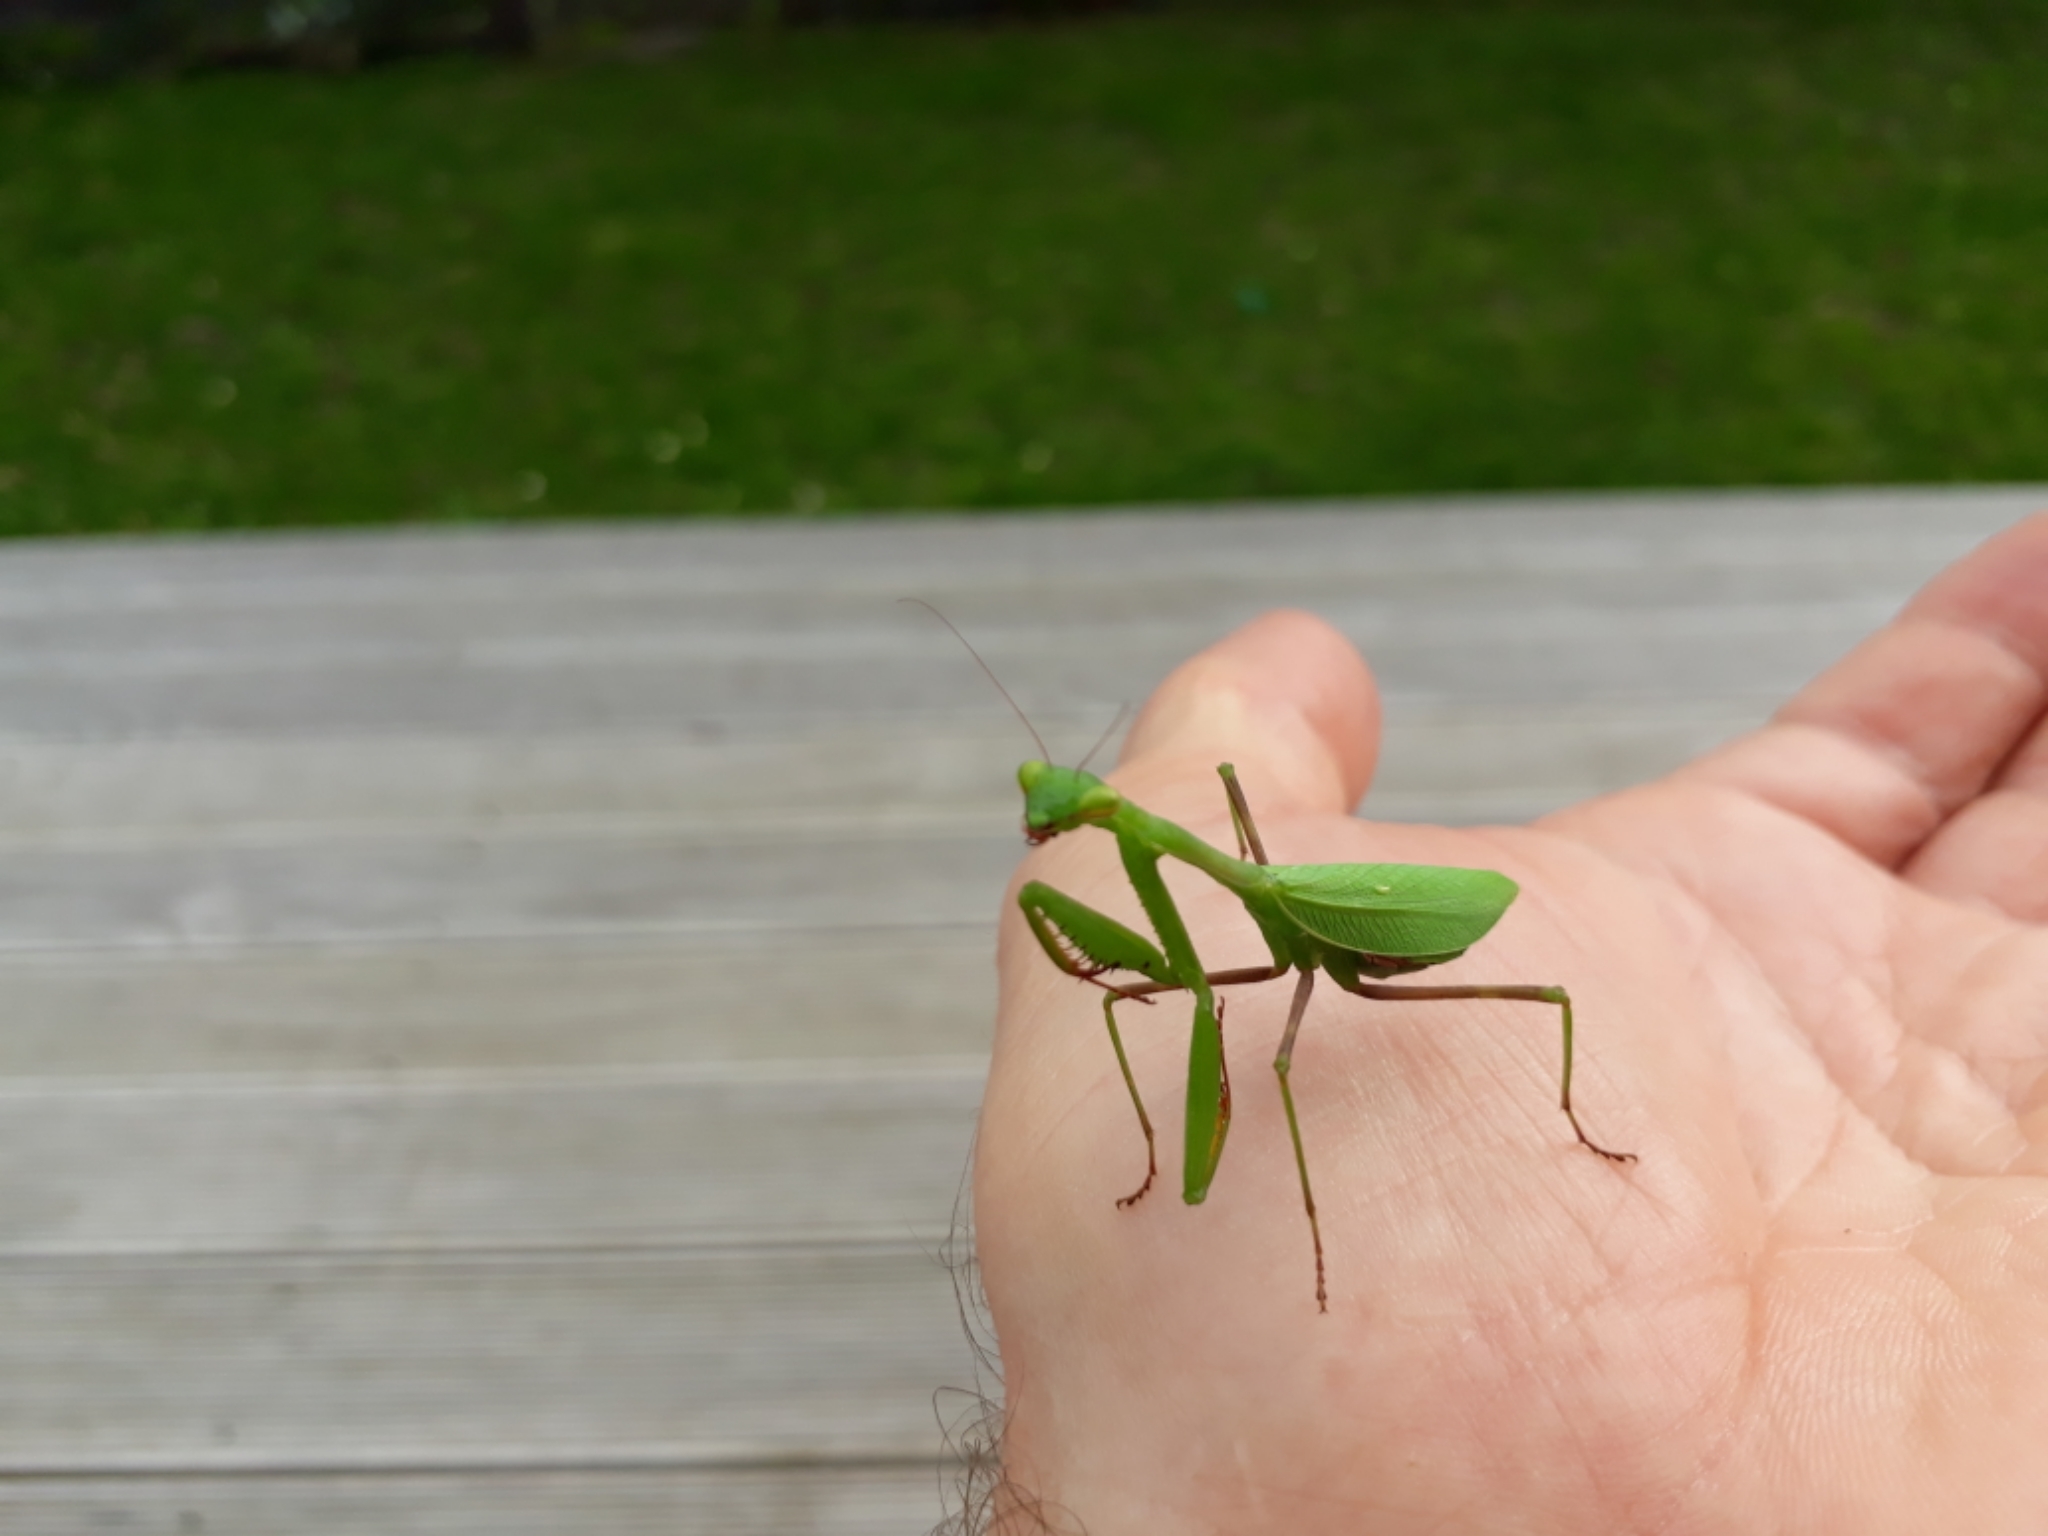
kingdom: Animalia
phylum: Arthropoda
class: Insecta
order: Mantodea
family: Miomantidae
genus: Miomantis
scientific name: Miomantis caffra
